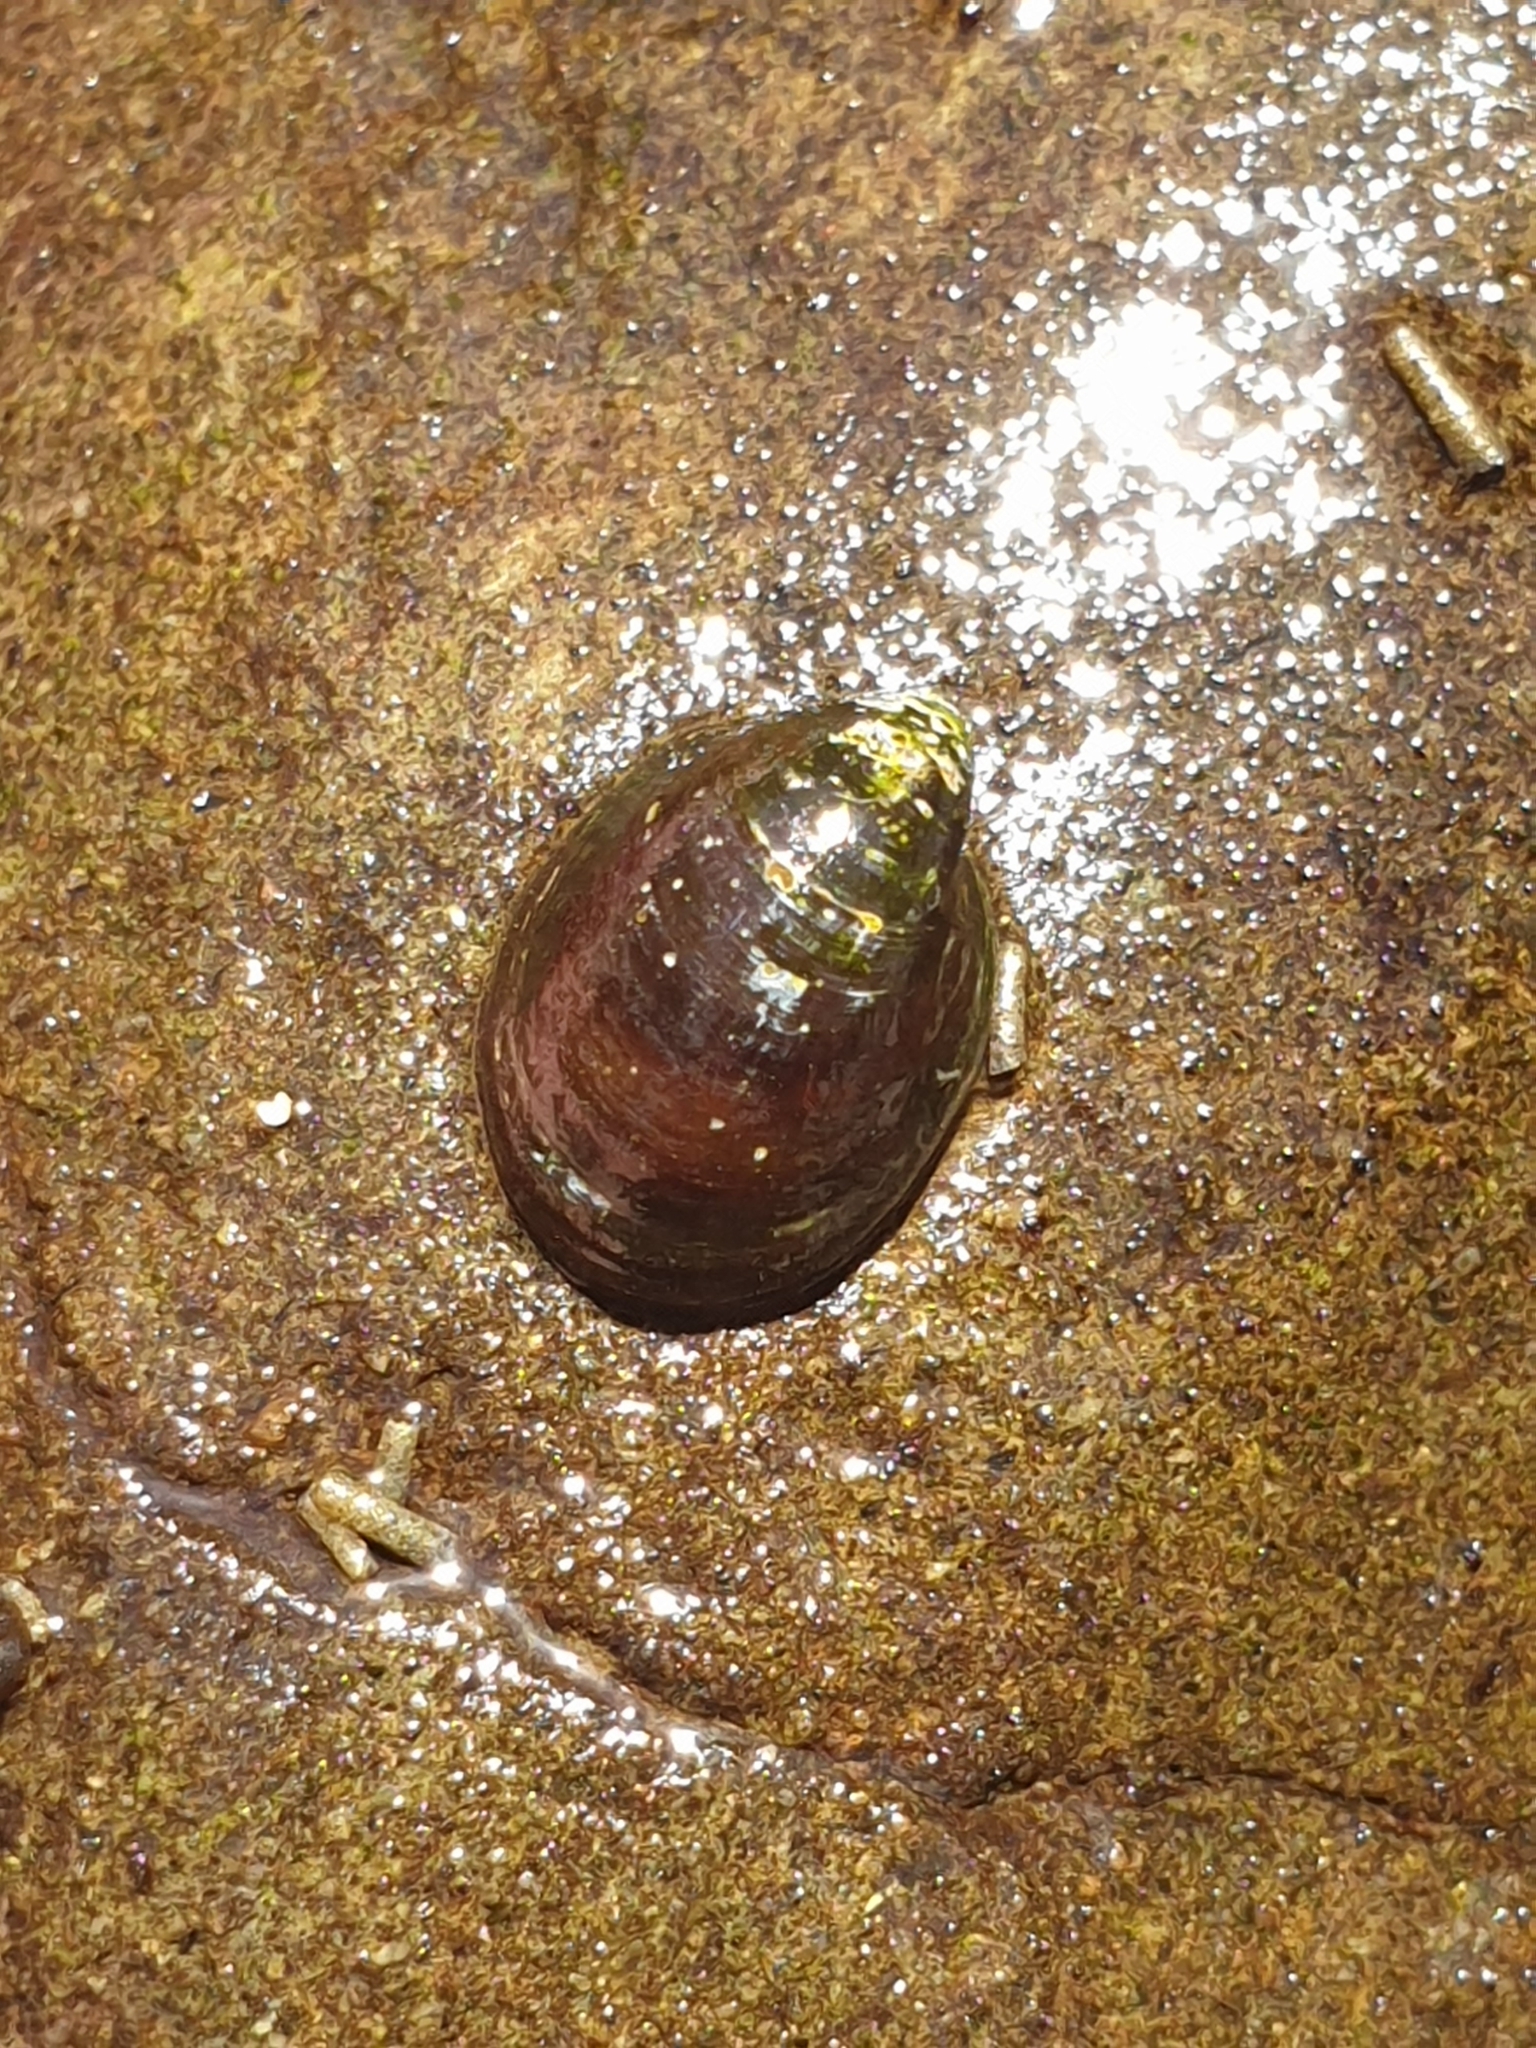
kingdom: Animalia
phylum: Mollusca
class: Gastropoda
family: Latiidae
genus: Latia
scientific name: Latia neritoides
